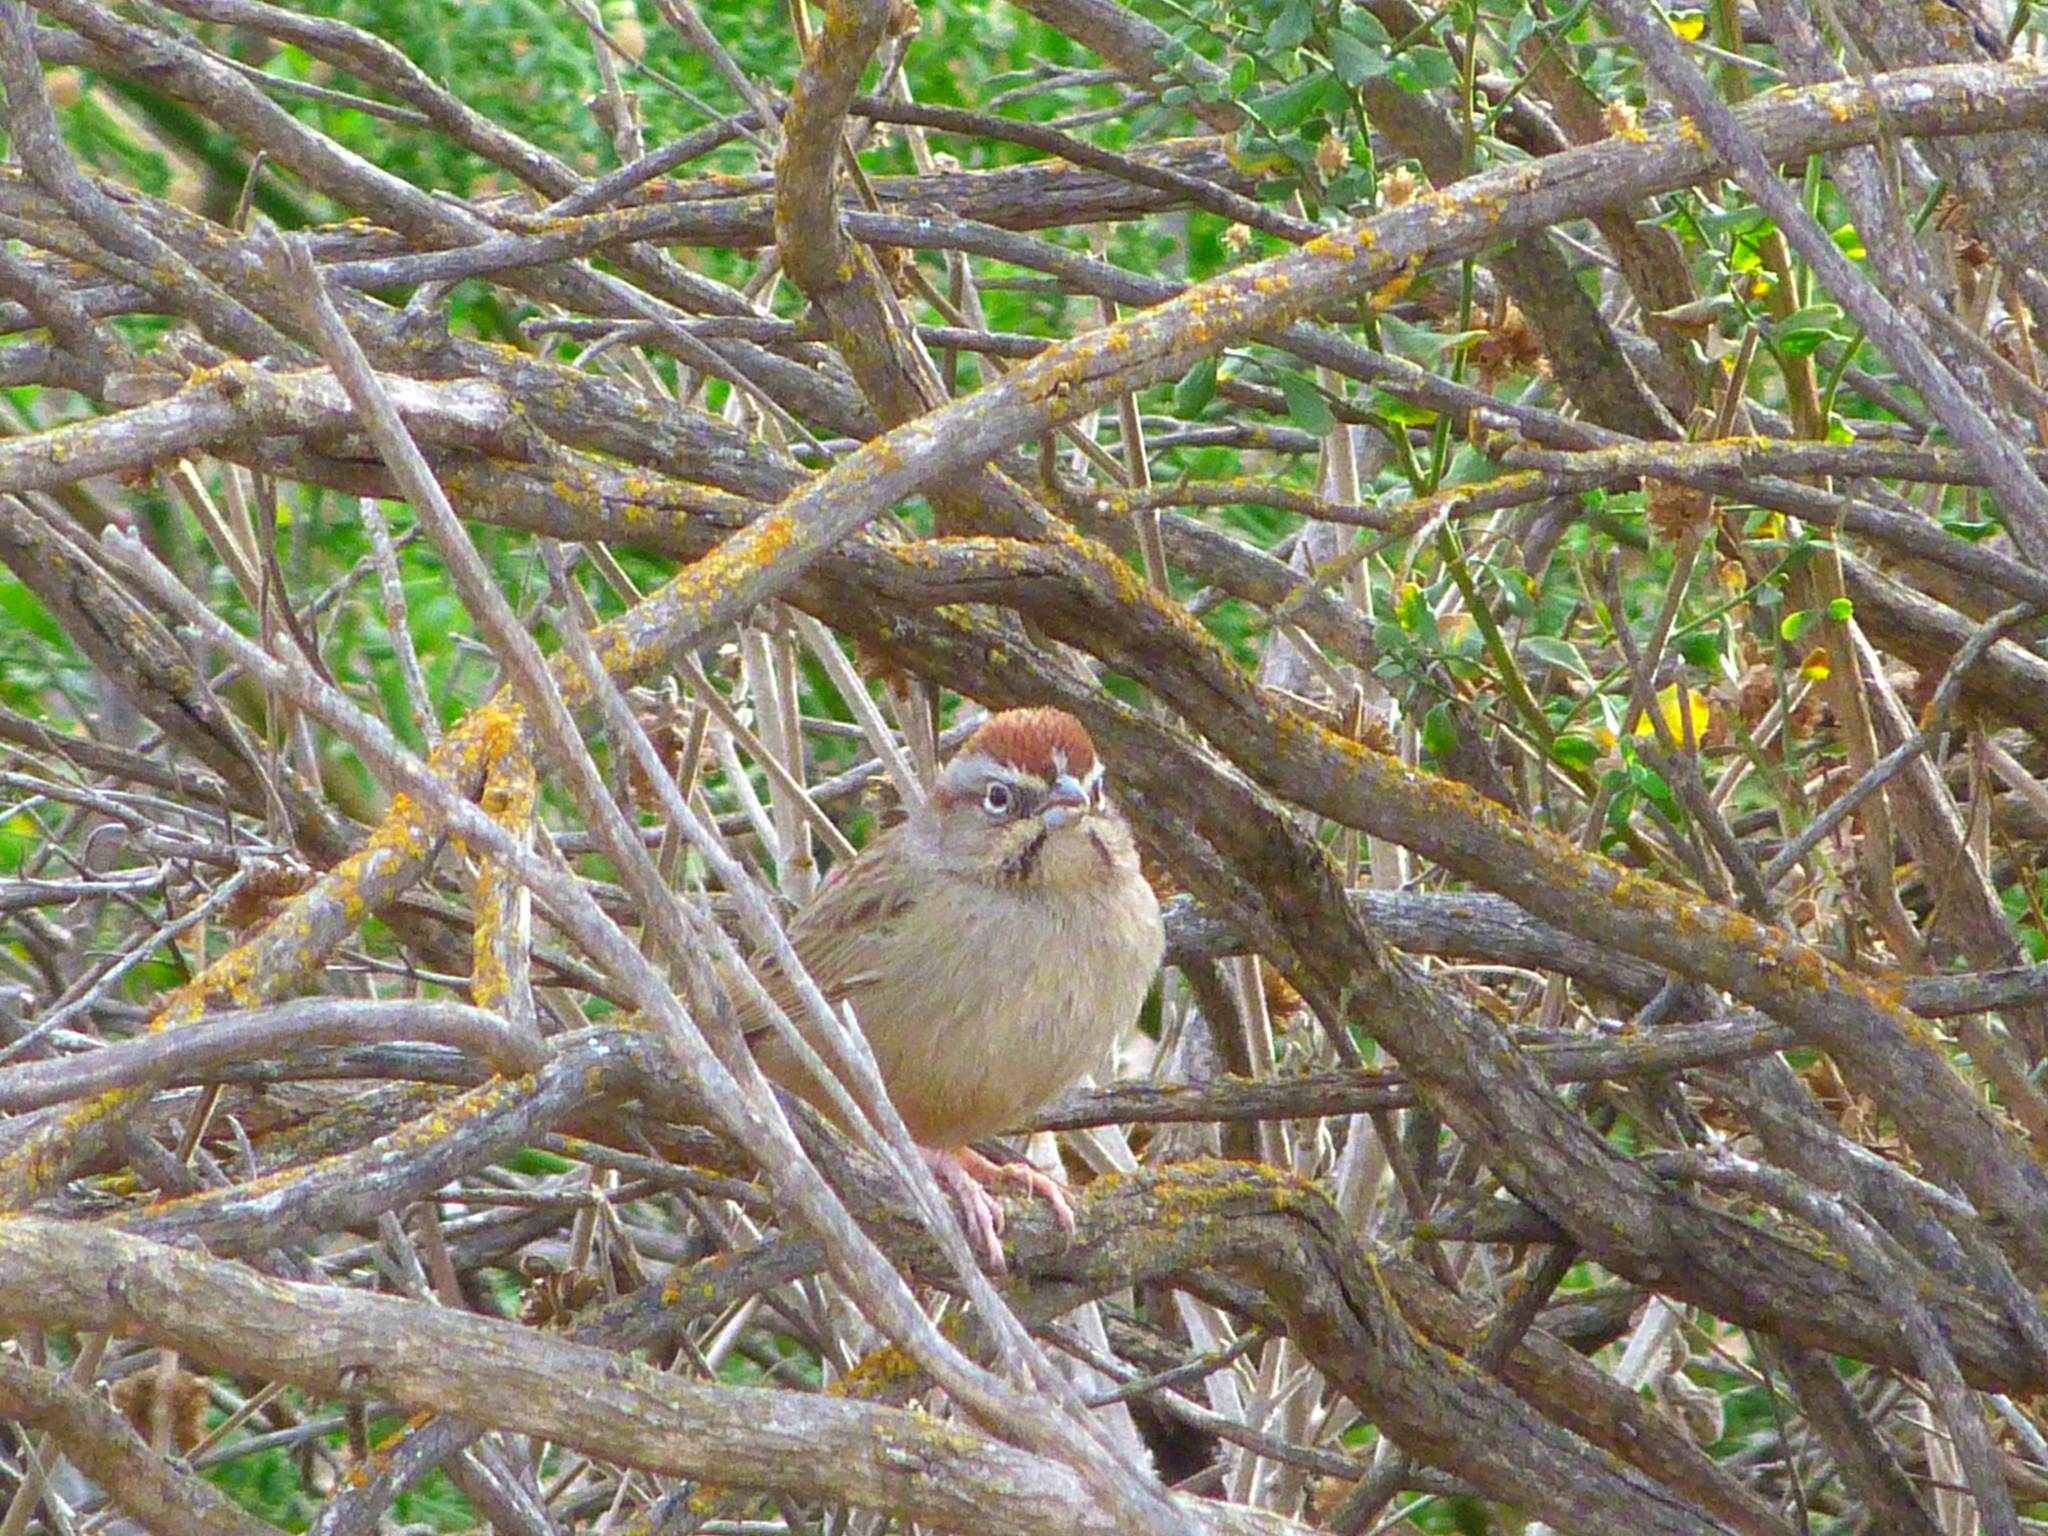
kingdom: Animalia
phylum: Chordata
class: Aves
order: Passeriformes
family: Passerellidae
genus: Aimophila
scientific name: Aimophila ruficeps
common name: Rufous-crowned sparrow
